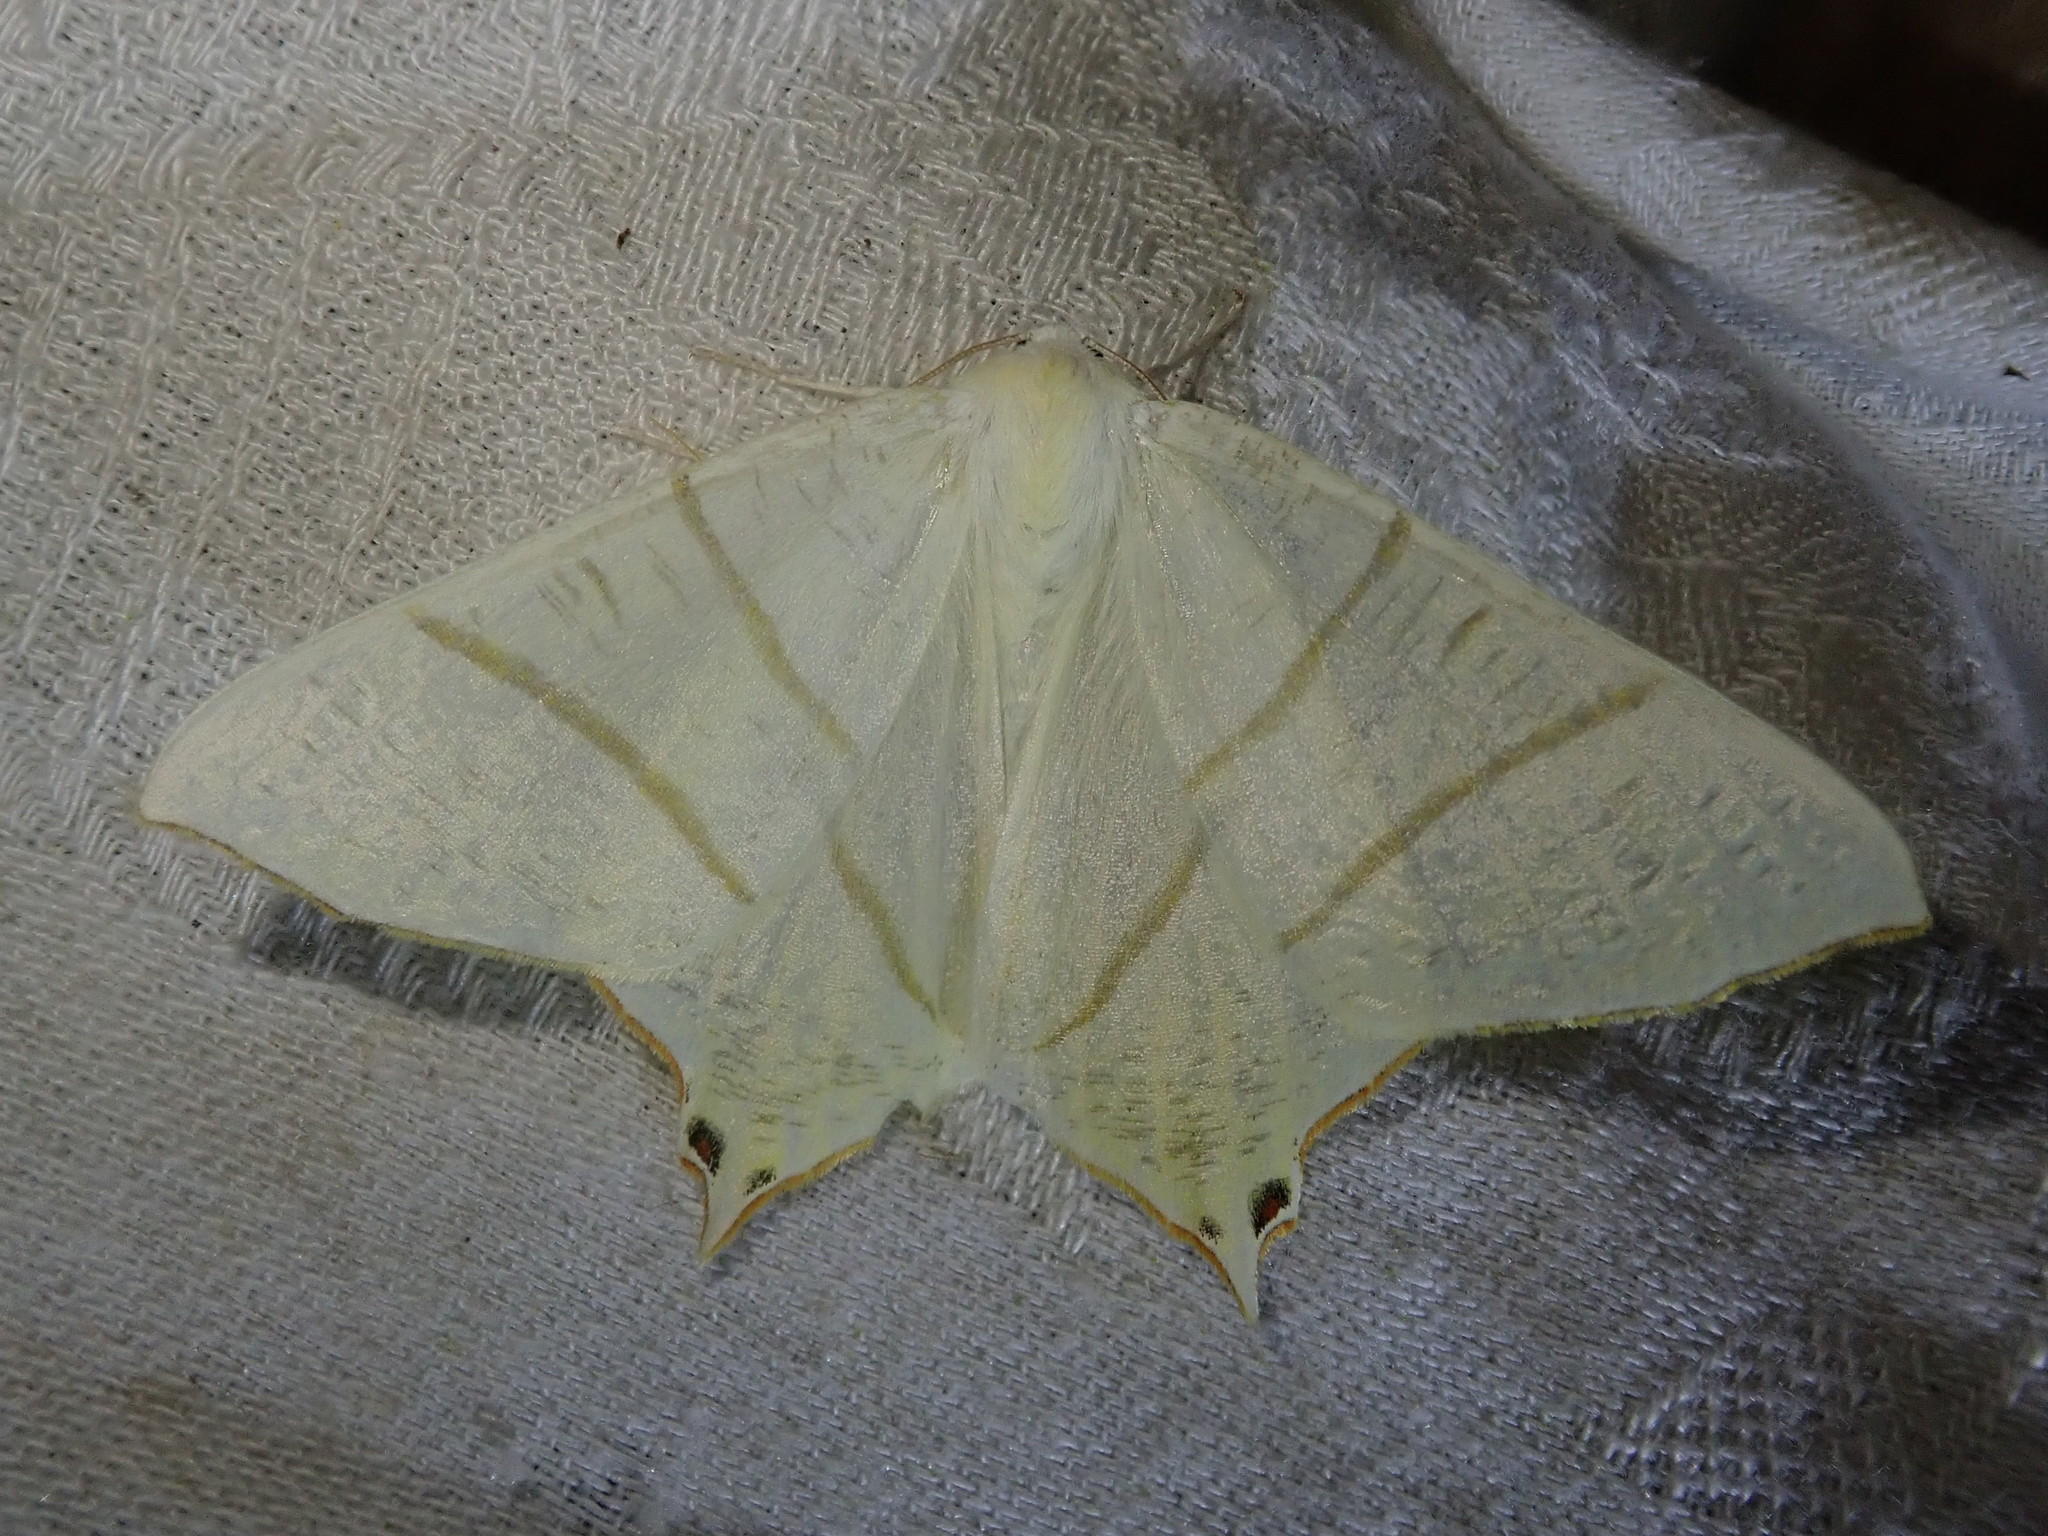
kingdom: Animalia
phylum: Arthropoda
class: Insecta
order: Lepidoptera
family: Geometridae
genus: Ourapteryx
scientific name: Ourapteryx sambucaria
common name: Swallow-tailed moth
